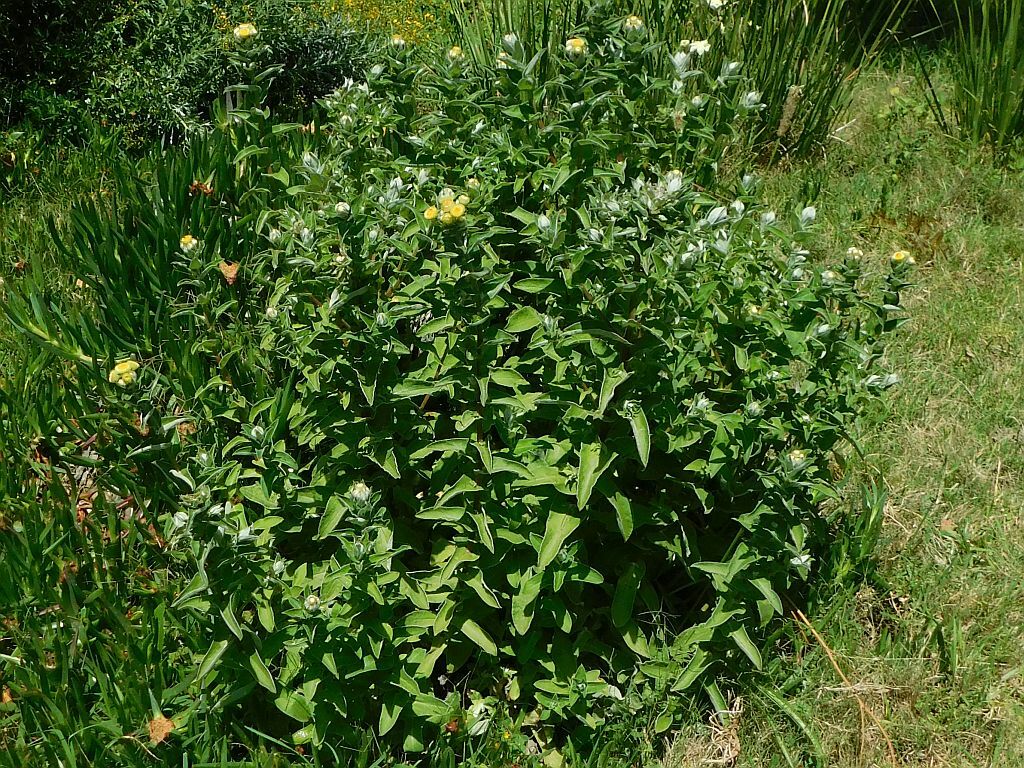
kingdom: Plantae
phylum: Tracheophyta
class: Magnoliopsida
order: Asterales
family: Asteraceae
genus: Helichrysum
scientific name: Helichrysum foetidum
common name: Stinking everlasting
